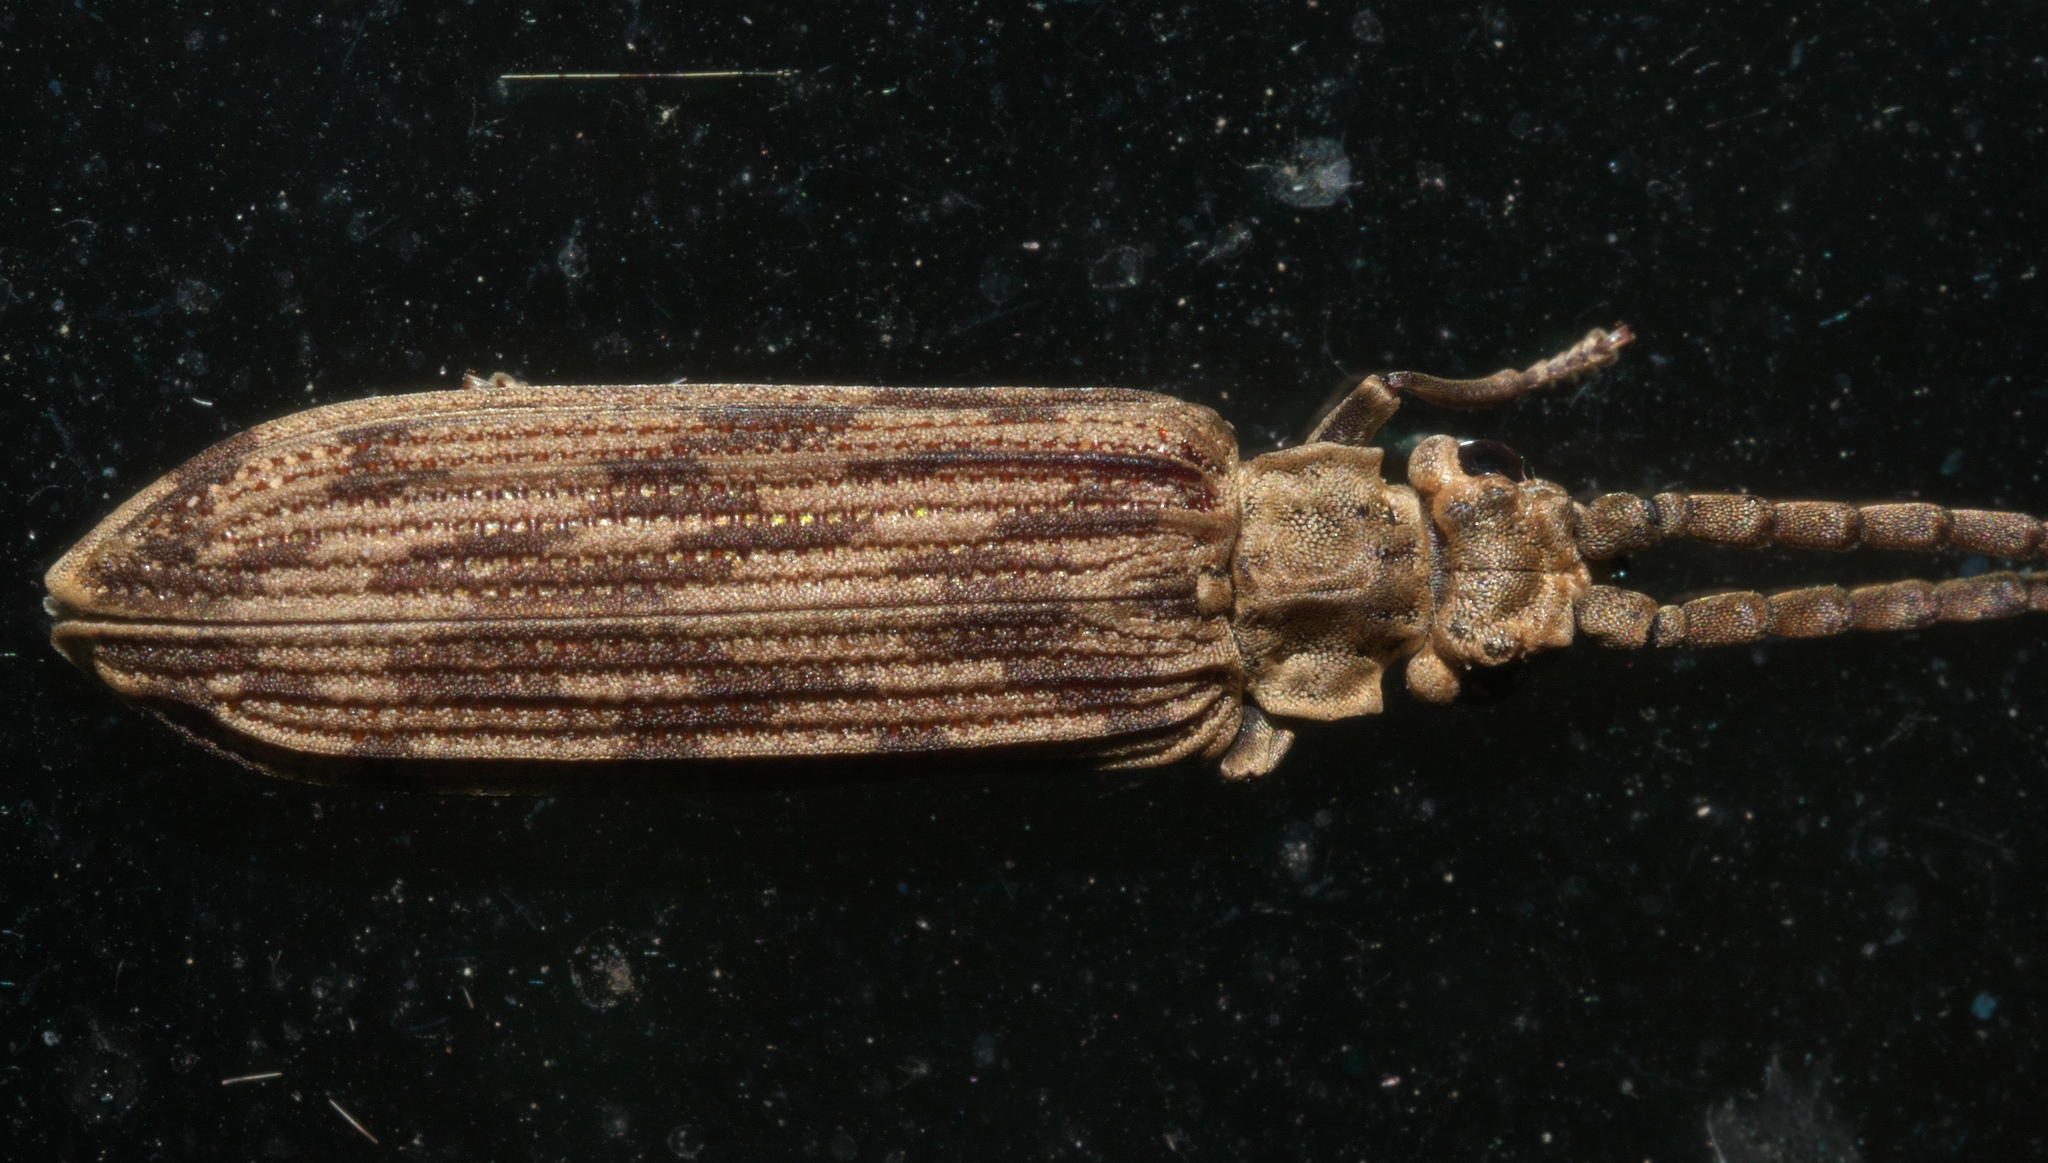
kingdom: Animalia
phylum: Arthropoda
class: Insecta
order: Coleoptera
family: Cupedidae
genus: Tenomerga
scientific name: Tenomerga cinerea
